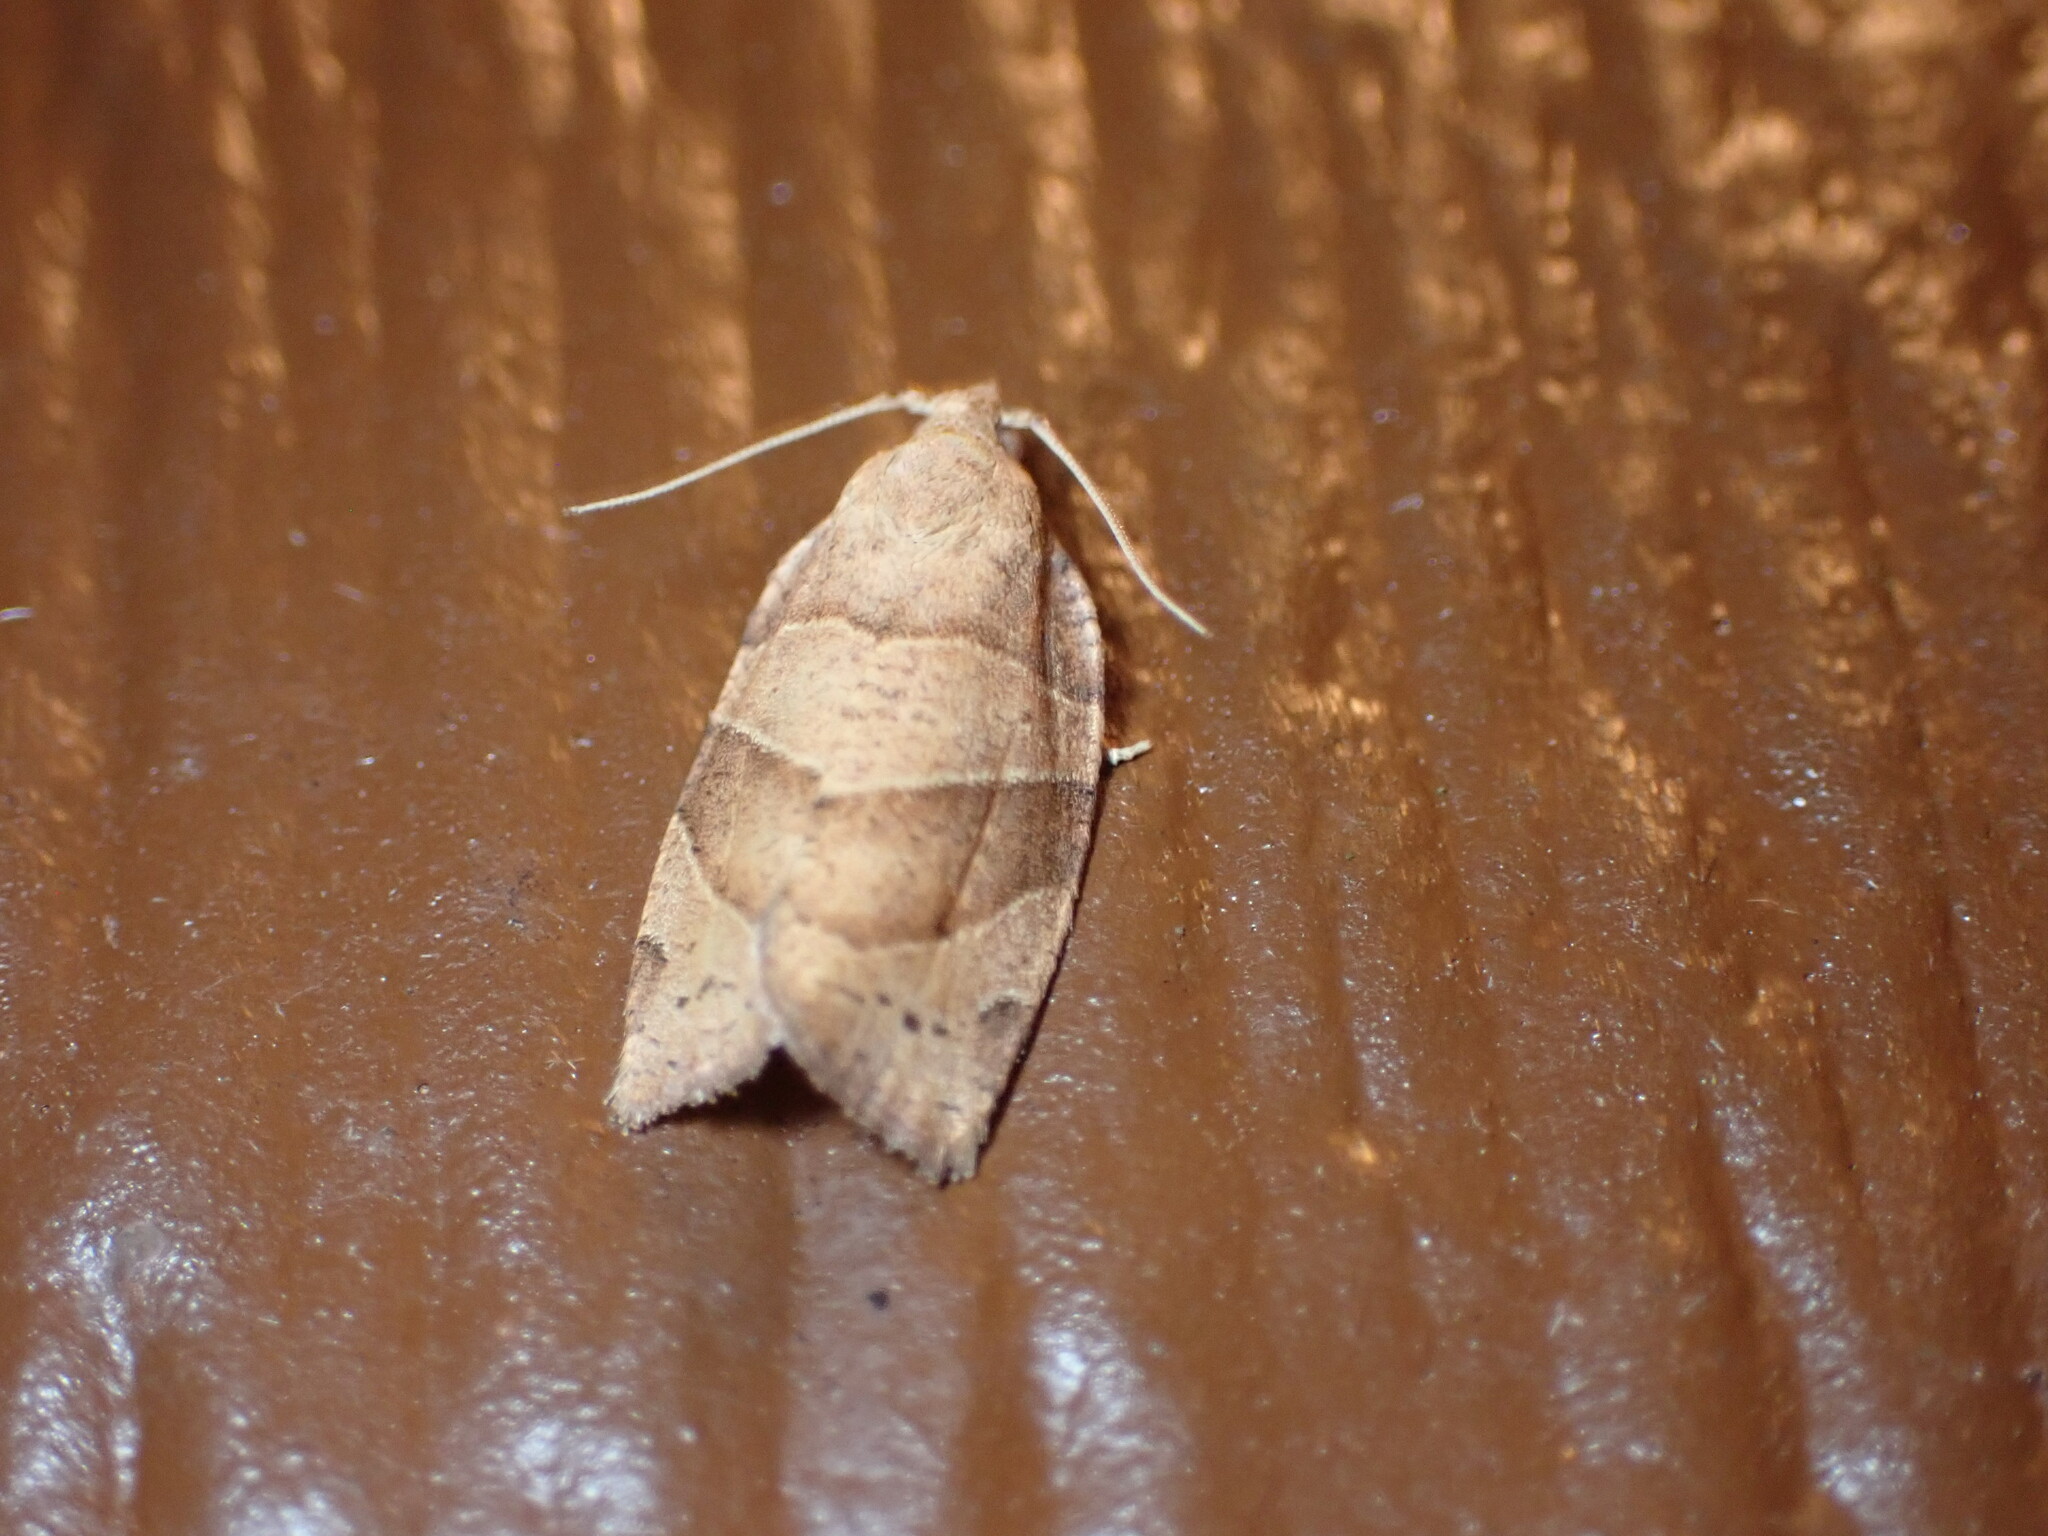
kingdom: Animalia
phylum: Arthropoda
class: Insecta
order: Lepidoptera
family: Tortricidae
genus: Pandemis
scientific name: Pandemis lamprosana
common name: Woodgrain leafroller moth
